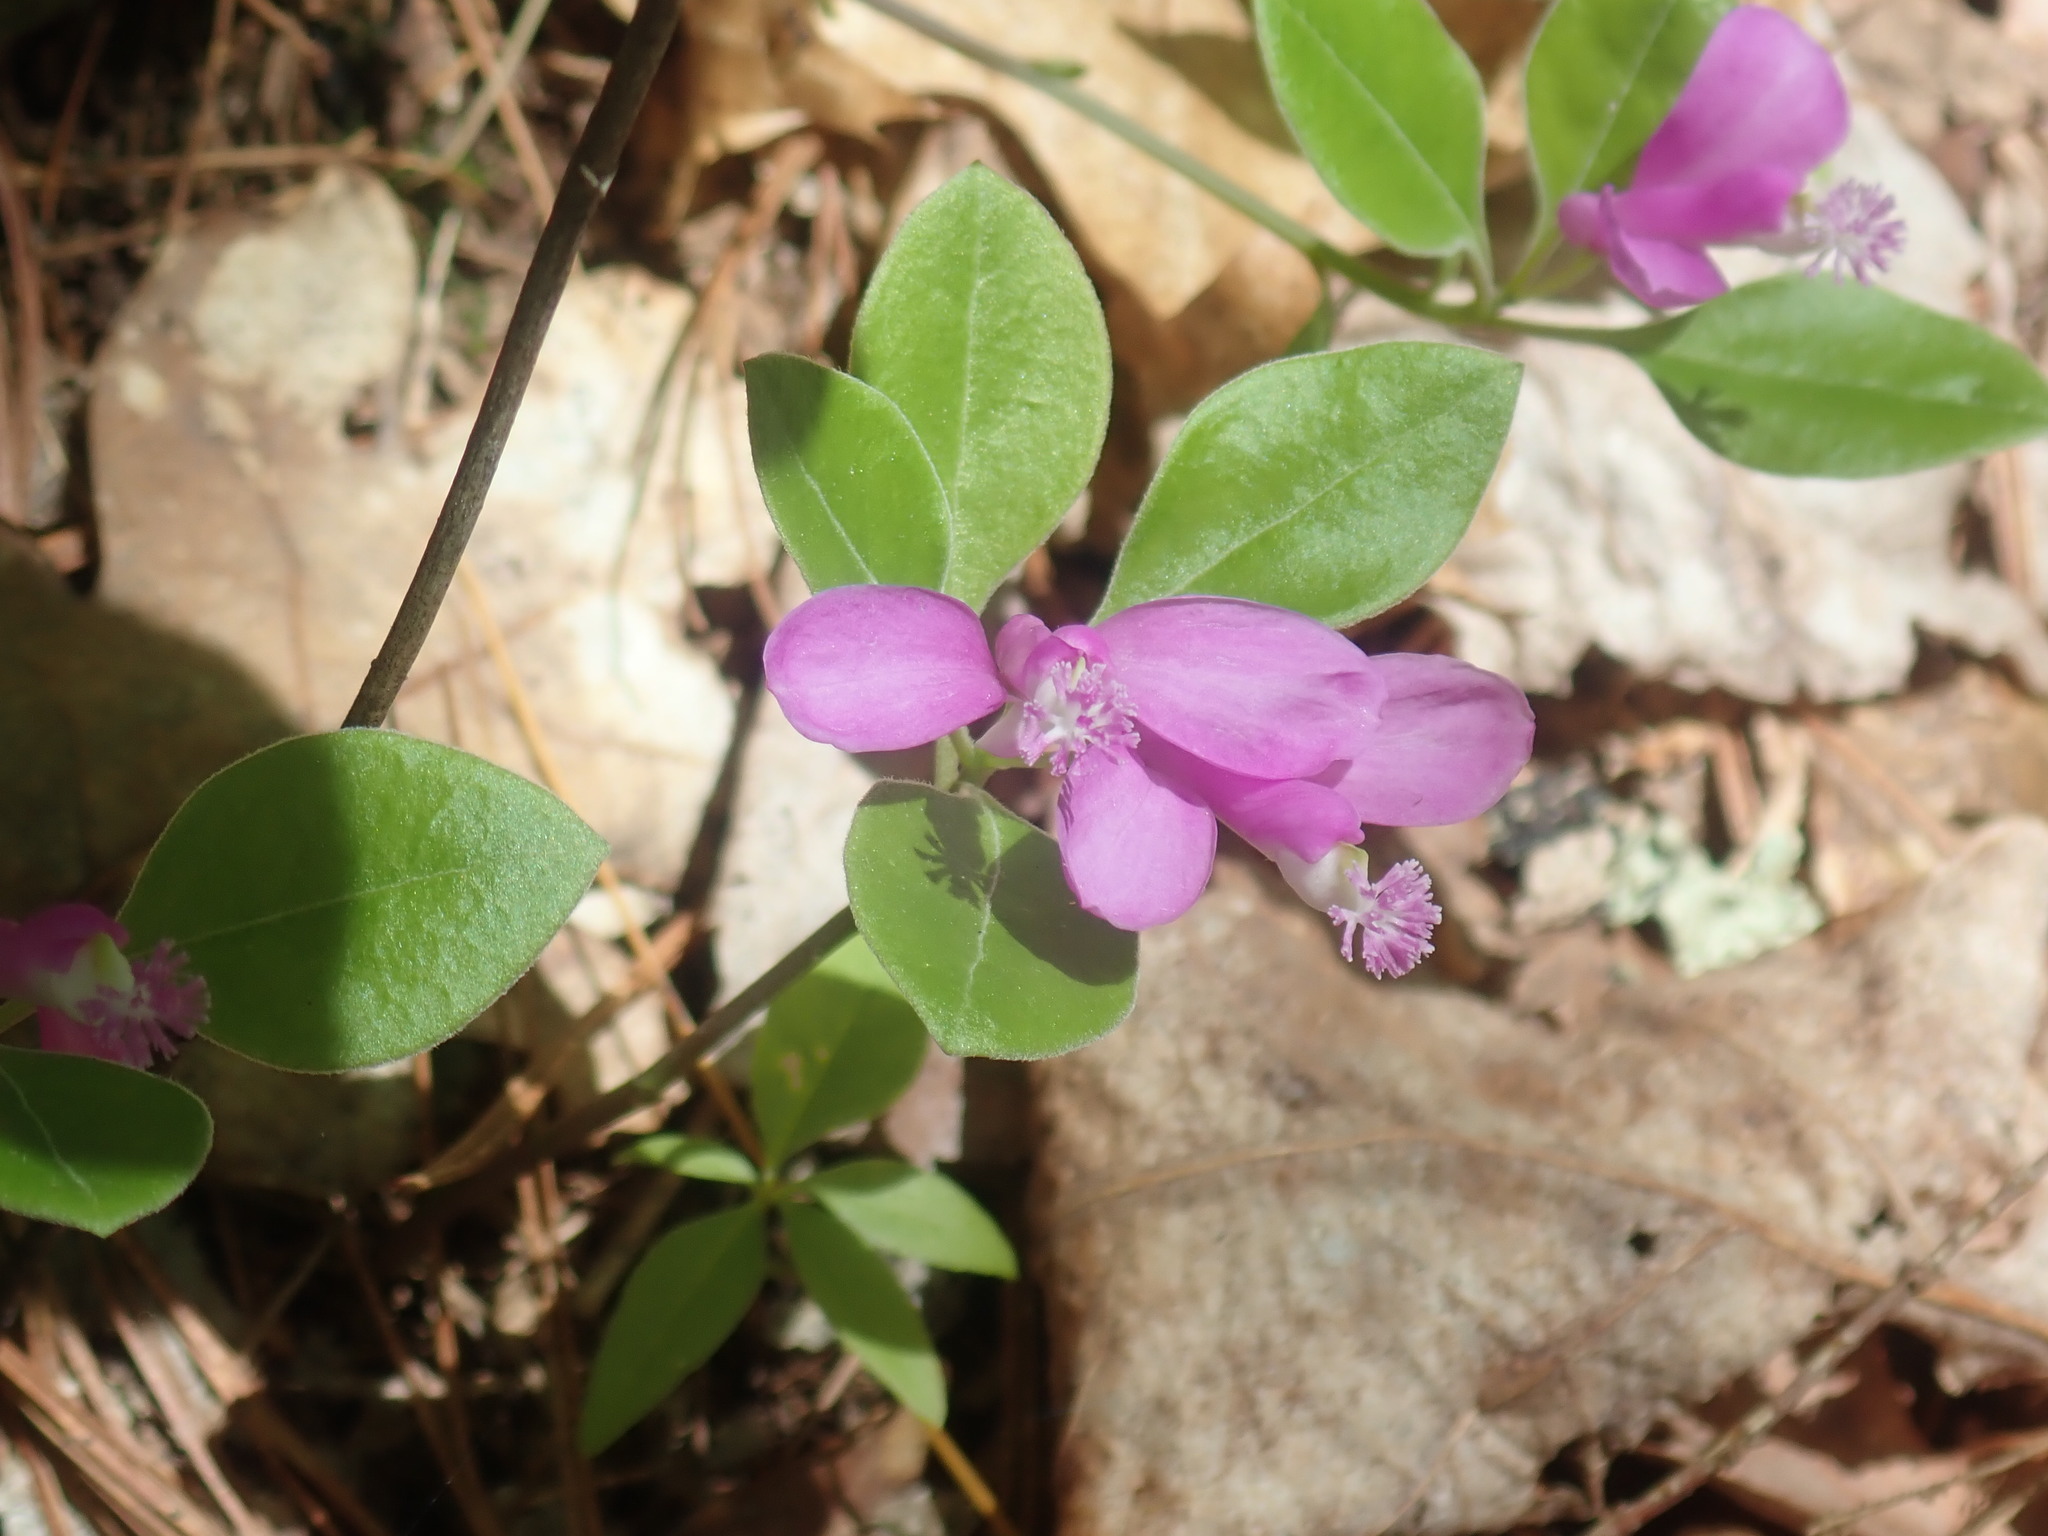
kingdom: Plantae
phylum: Tracheophyta
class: Magnoliopsida
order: Fabales
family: Polygalaceae
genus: Polygaloides
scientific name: Polygaloides paucifolia
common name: Bird-on-the-wing
